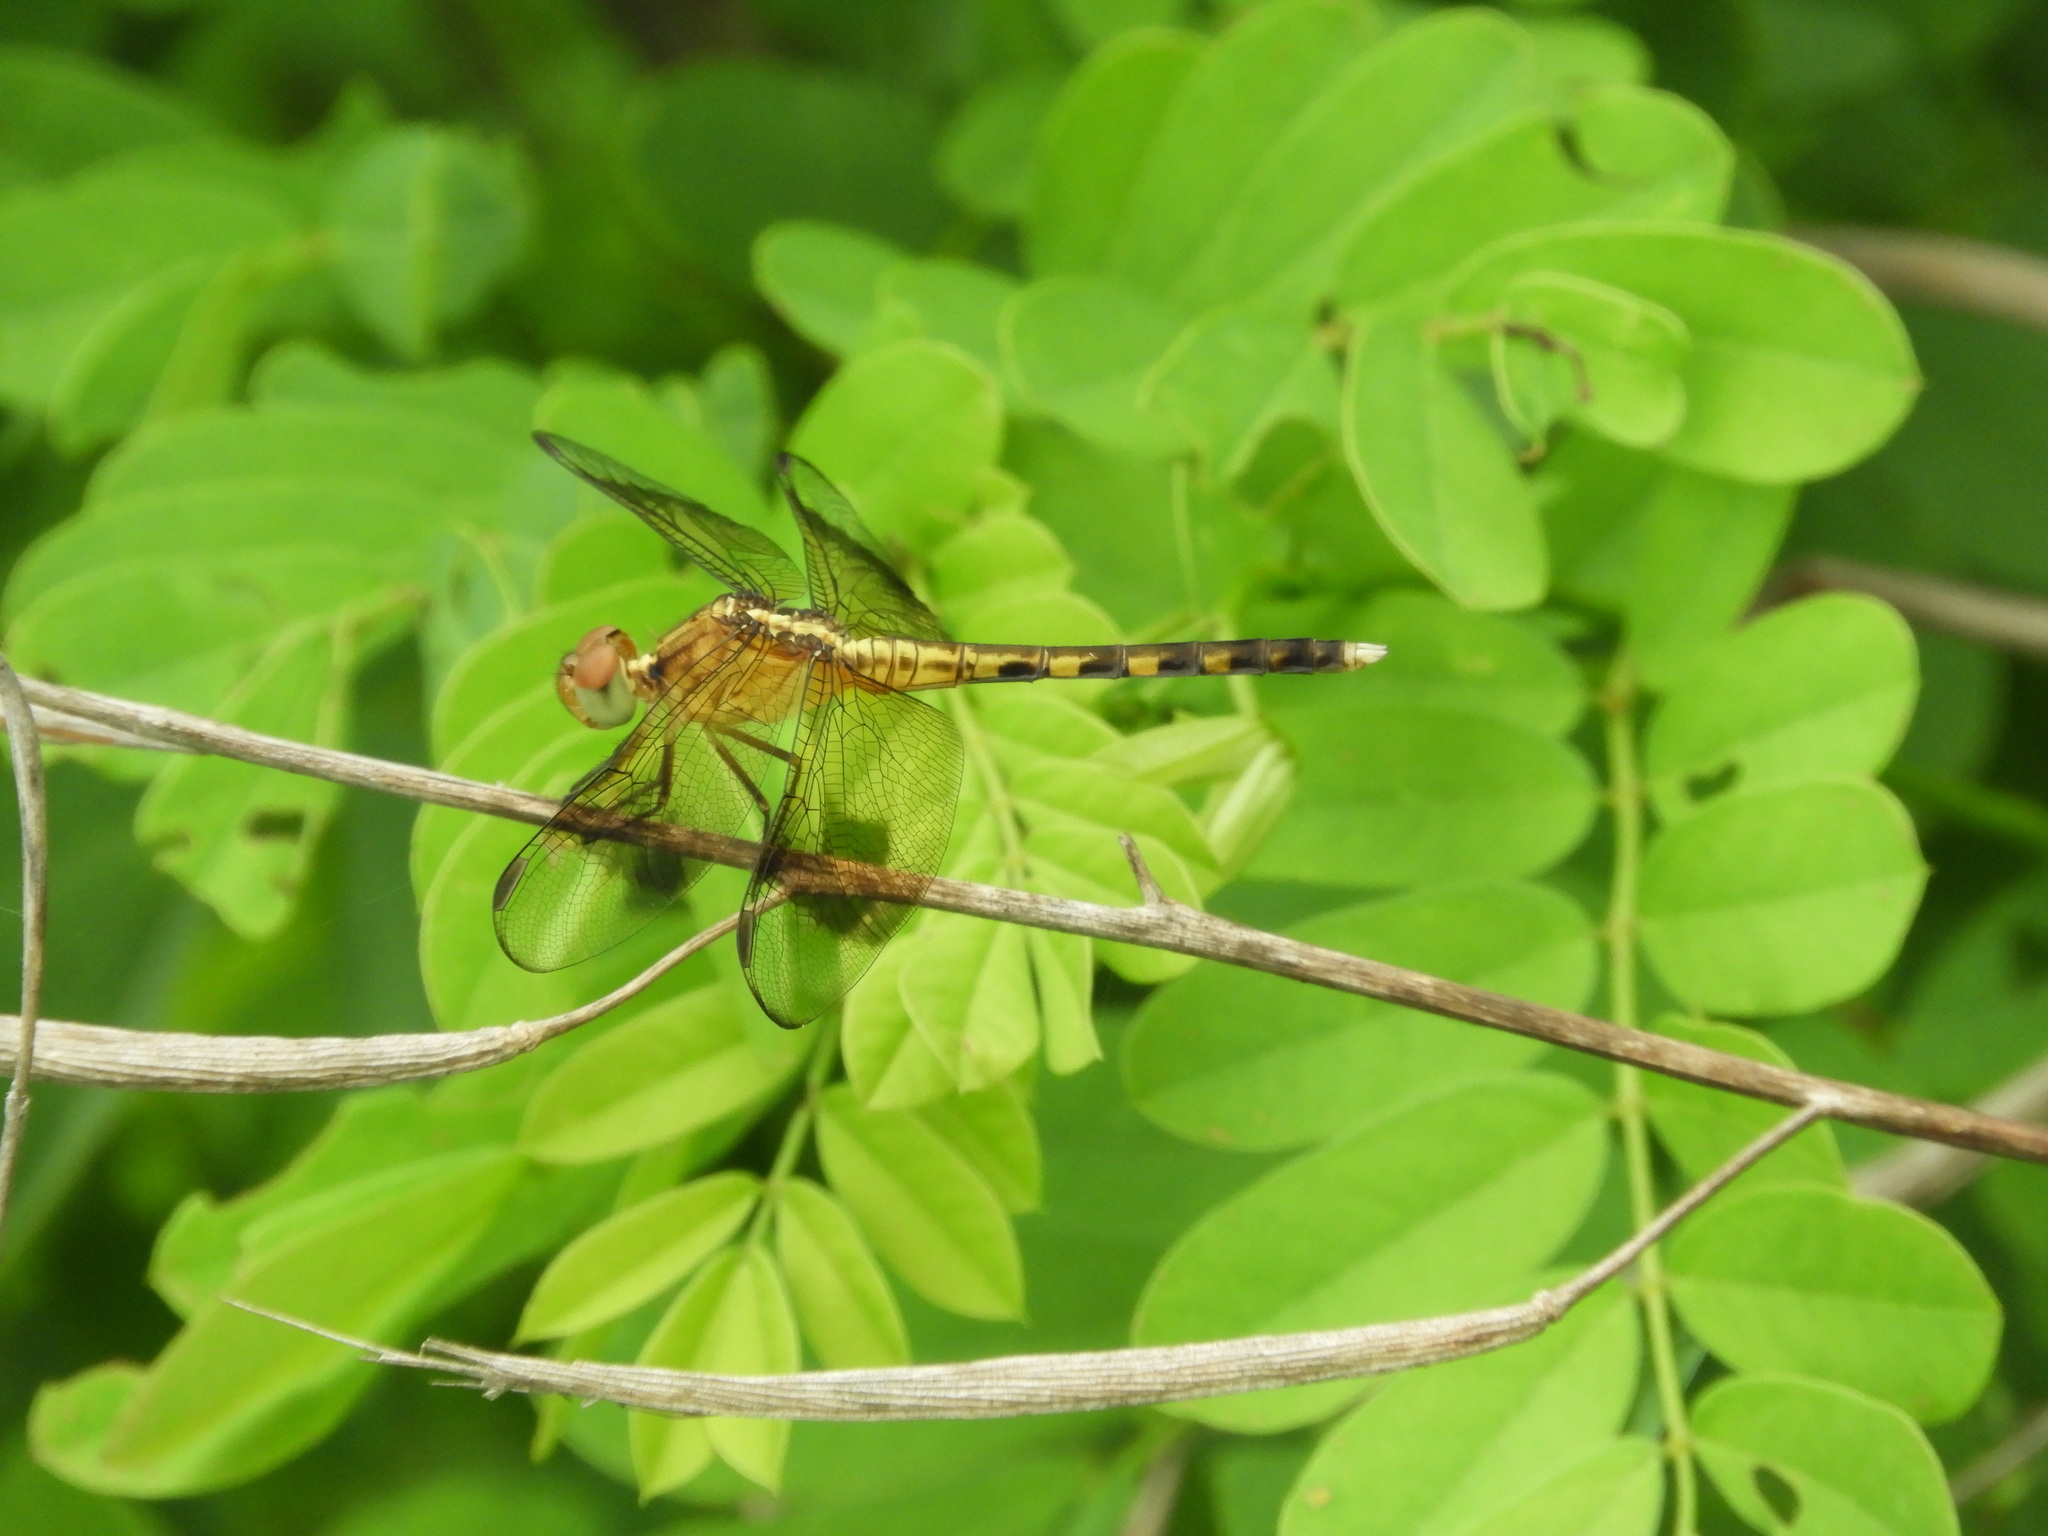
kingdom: Animalia
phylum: Arthropoda
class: Insecta
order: Odonata
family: Libellulidae
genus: Erythrodiplax
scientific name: Erythrodiplax funerea
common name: Black-winged dragonlet
